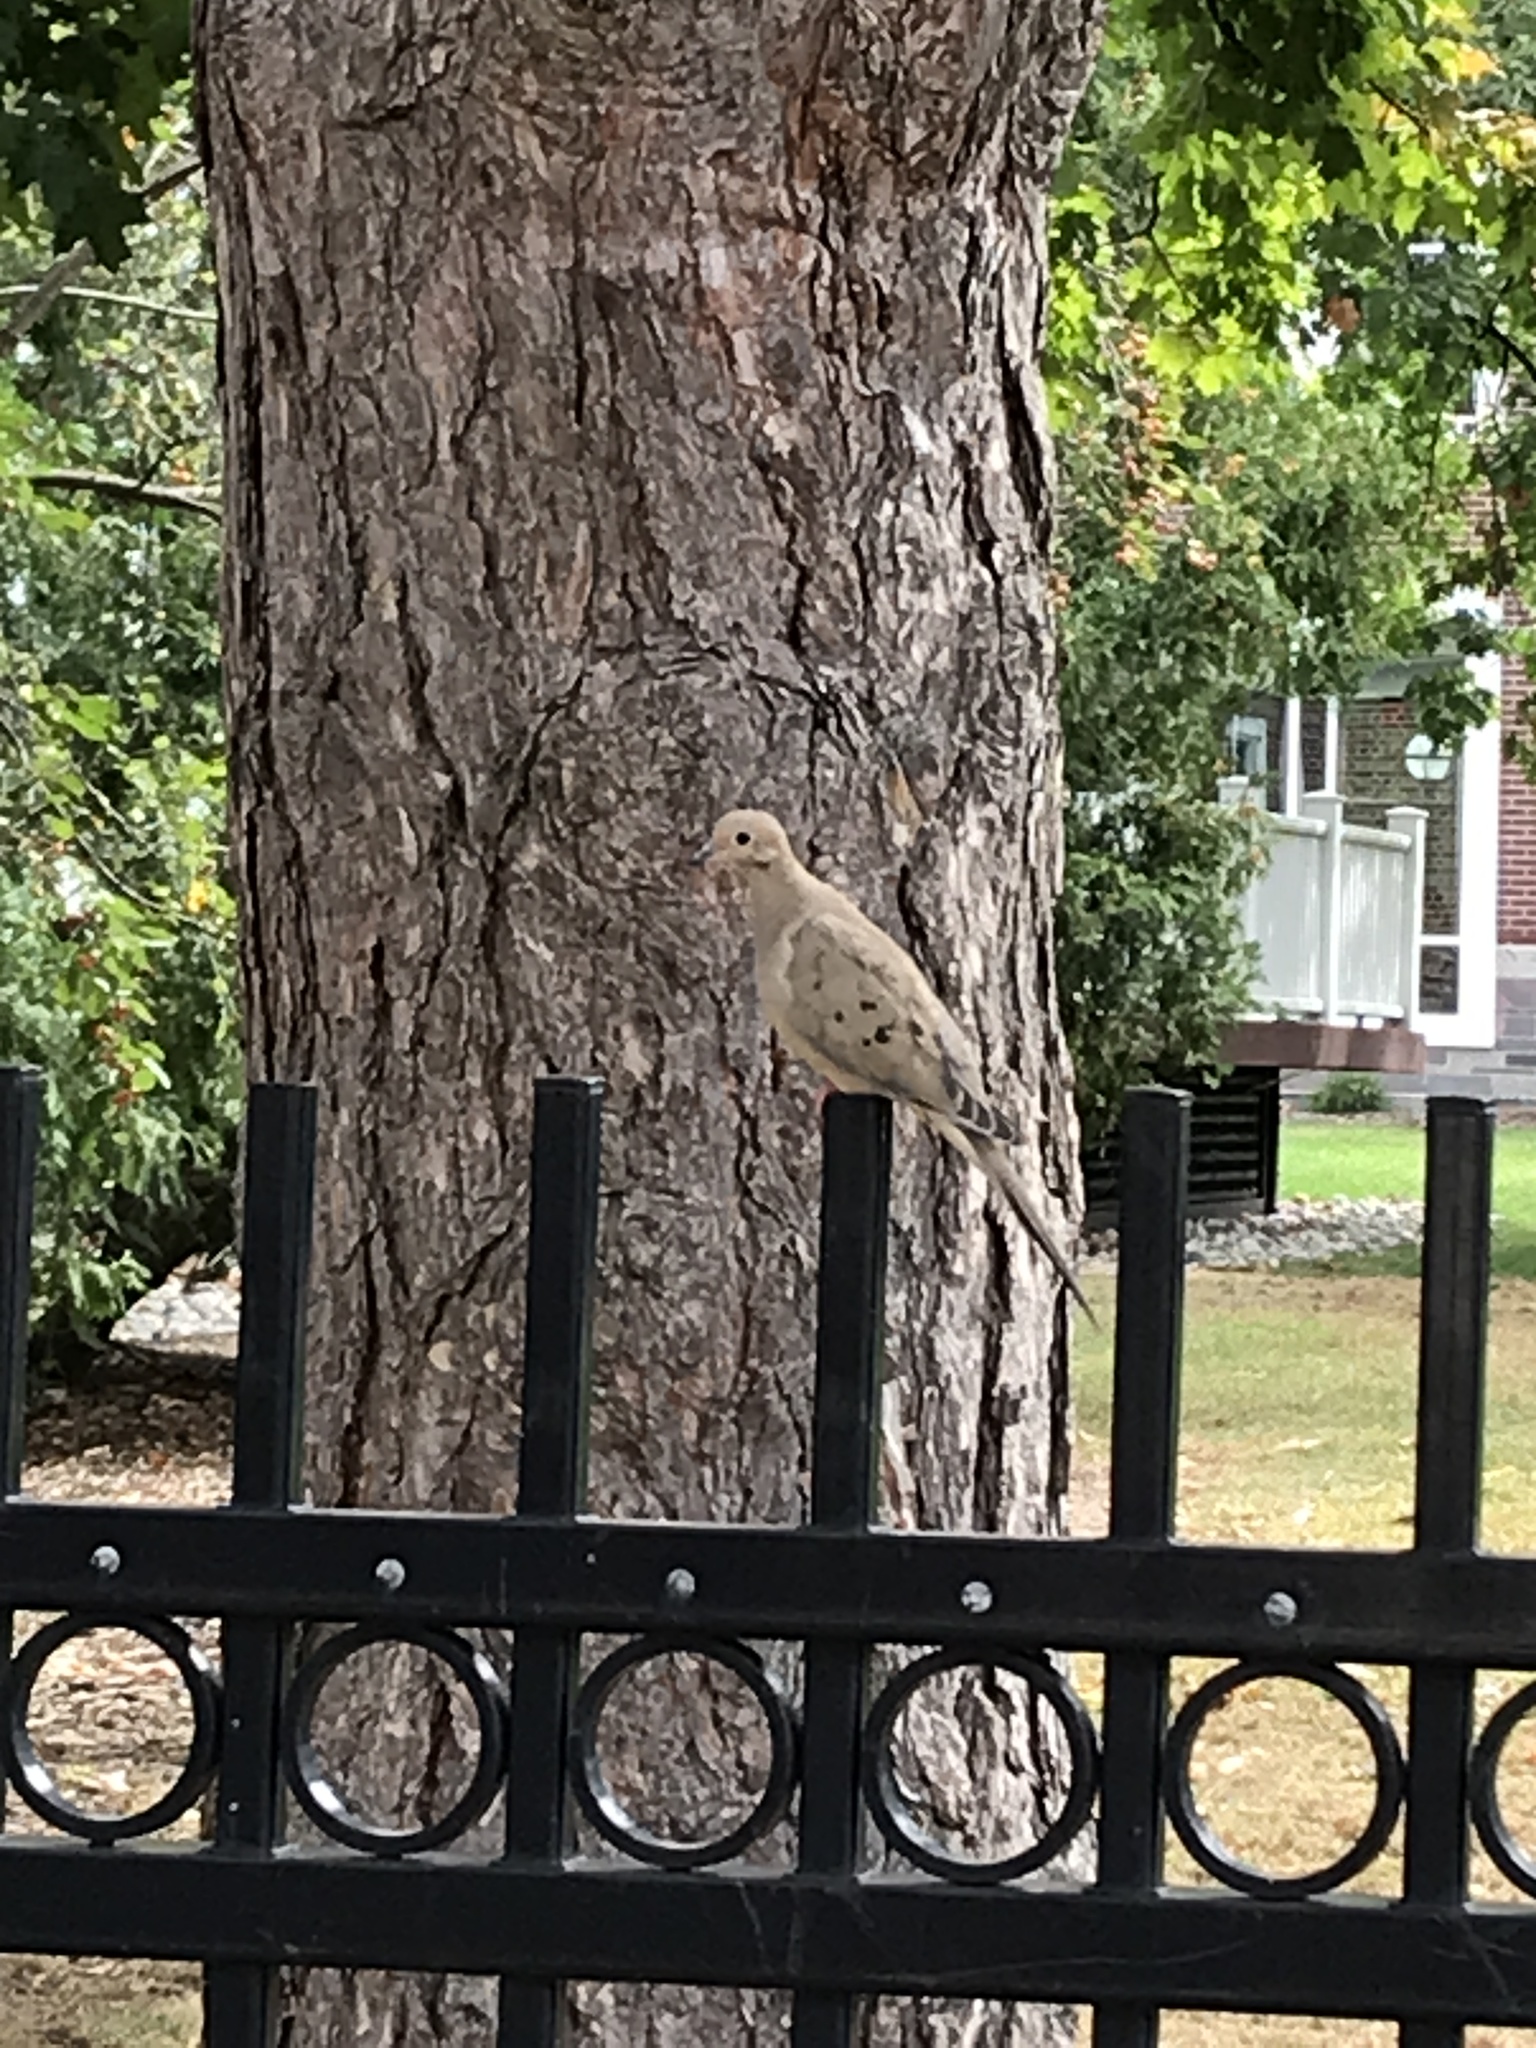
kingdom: Animalia
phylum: Chordata
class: Aves
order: Columbiformes
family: Columbidae
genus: Zenaida
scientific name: Zenaida macroura
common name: Mourning dove
